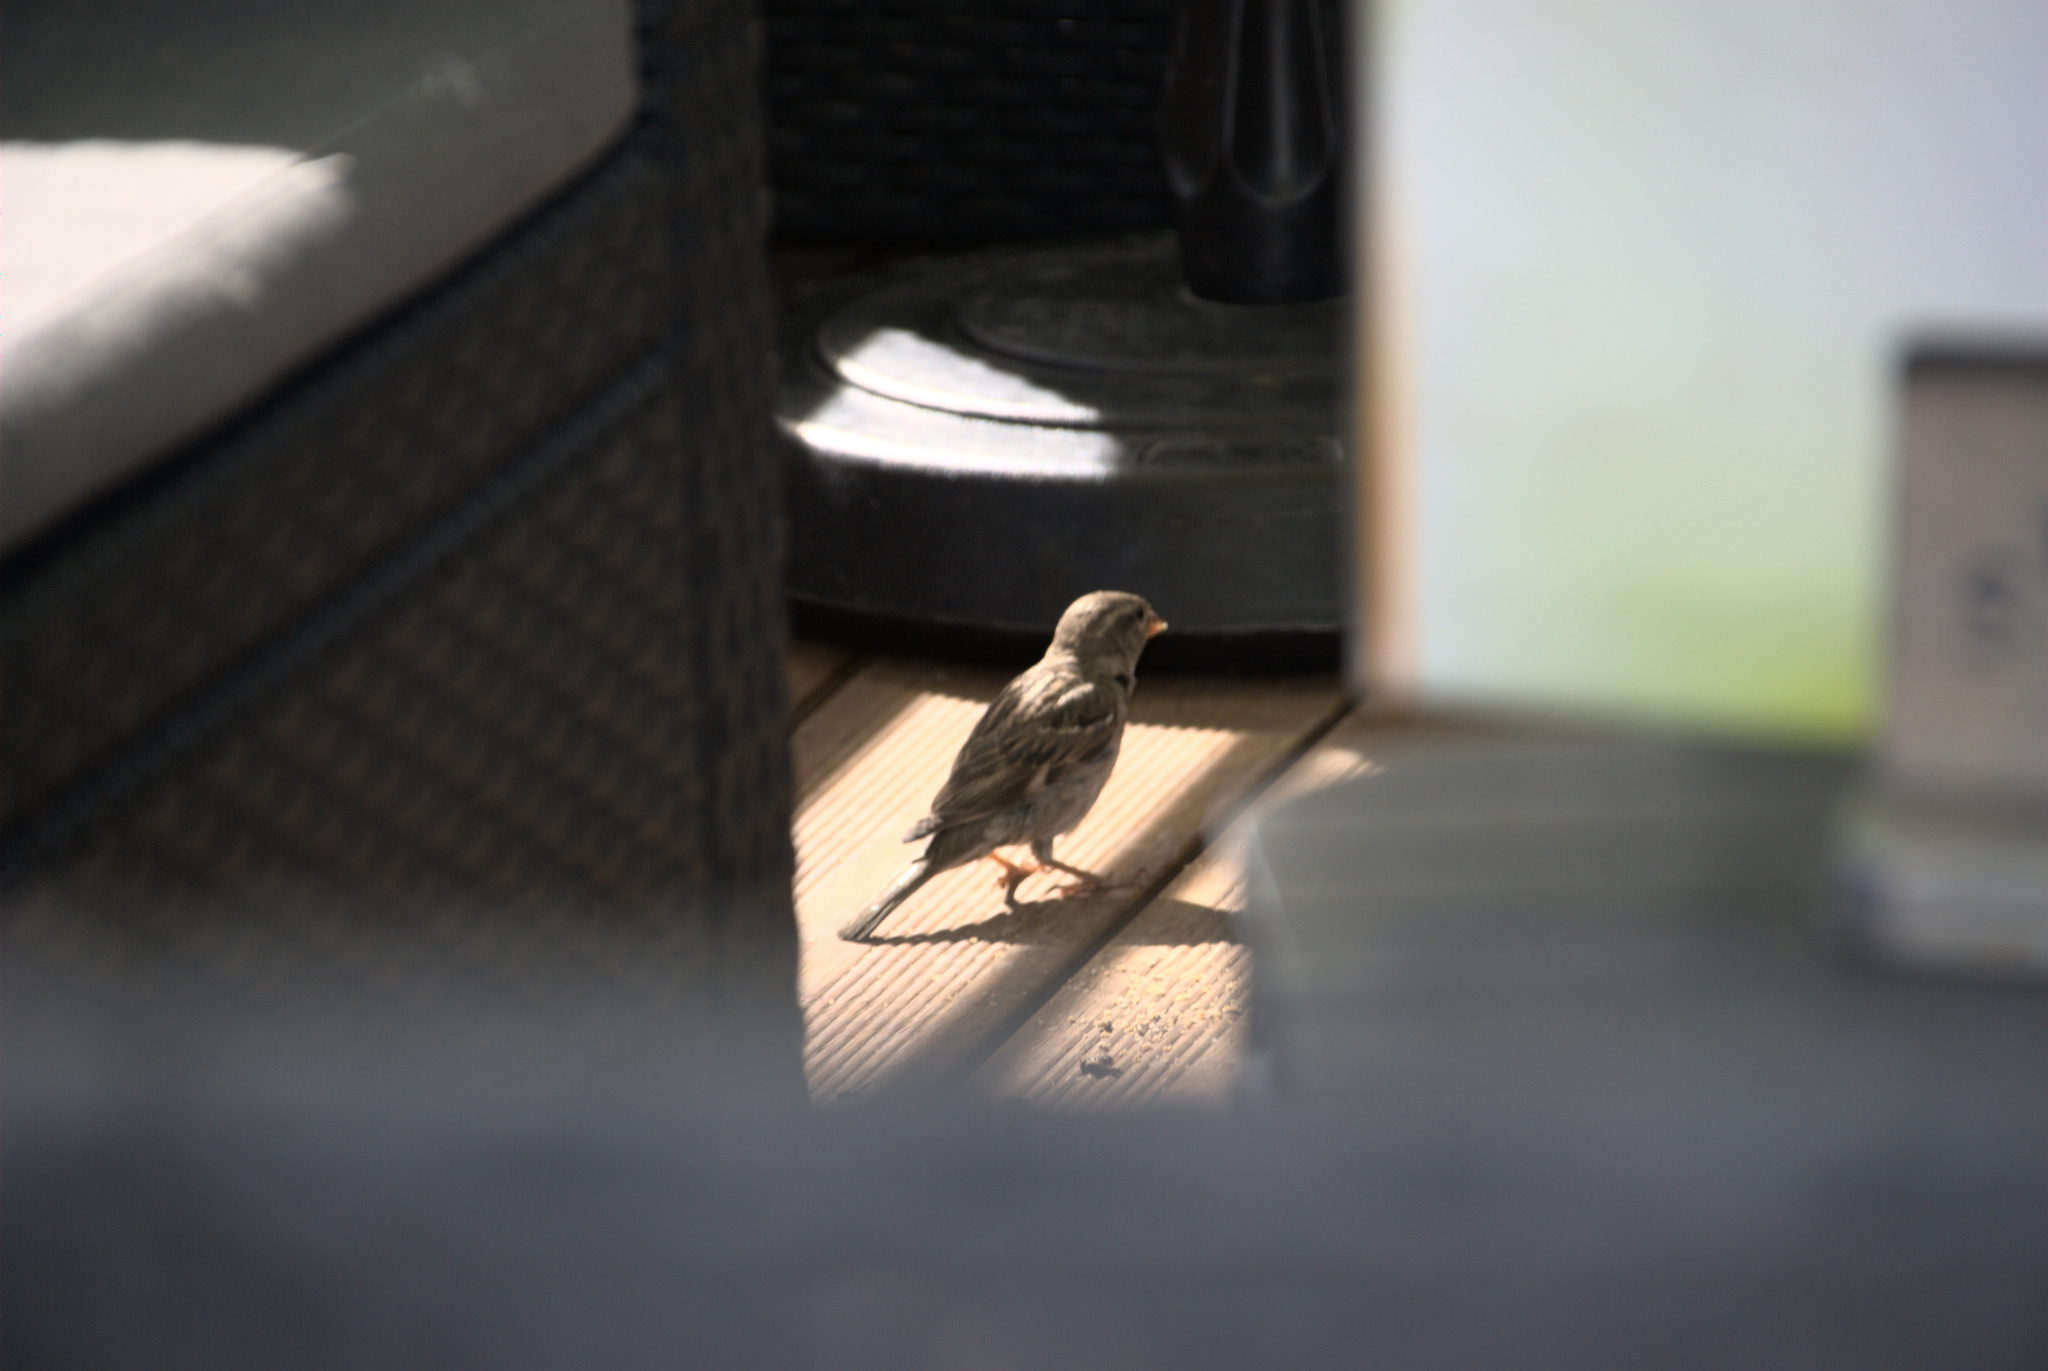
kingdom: Animalia
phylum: Chordata
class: Aves
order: Passeriformes
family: Passeridae
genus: Passer
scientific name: Passer domesticus
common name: House sparrow
